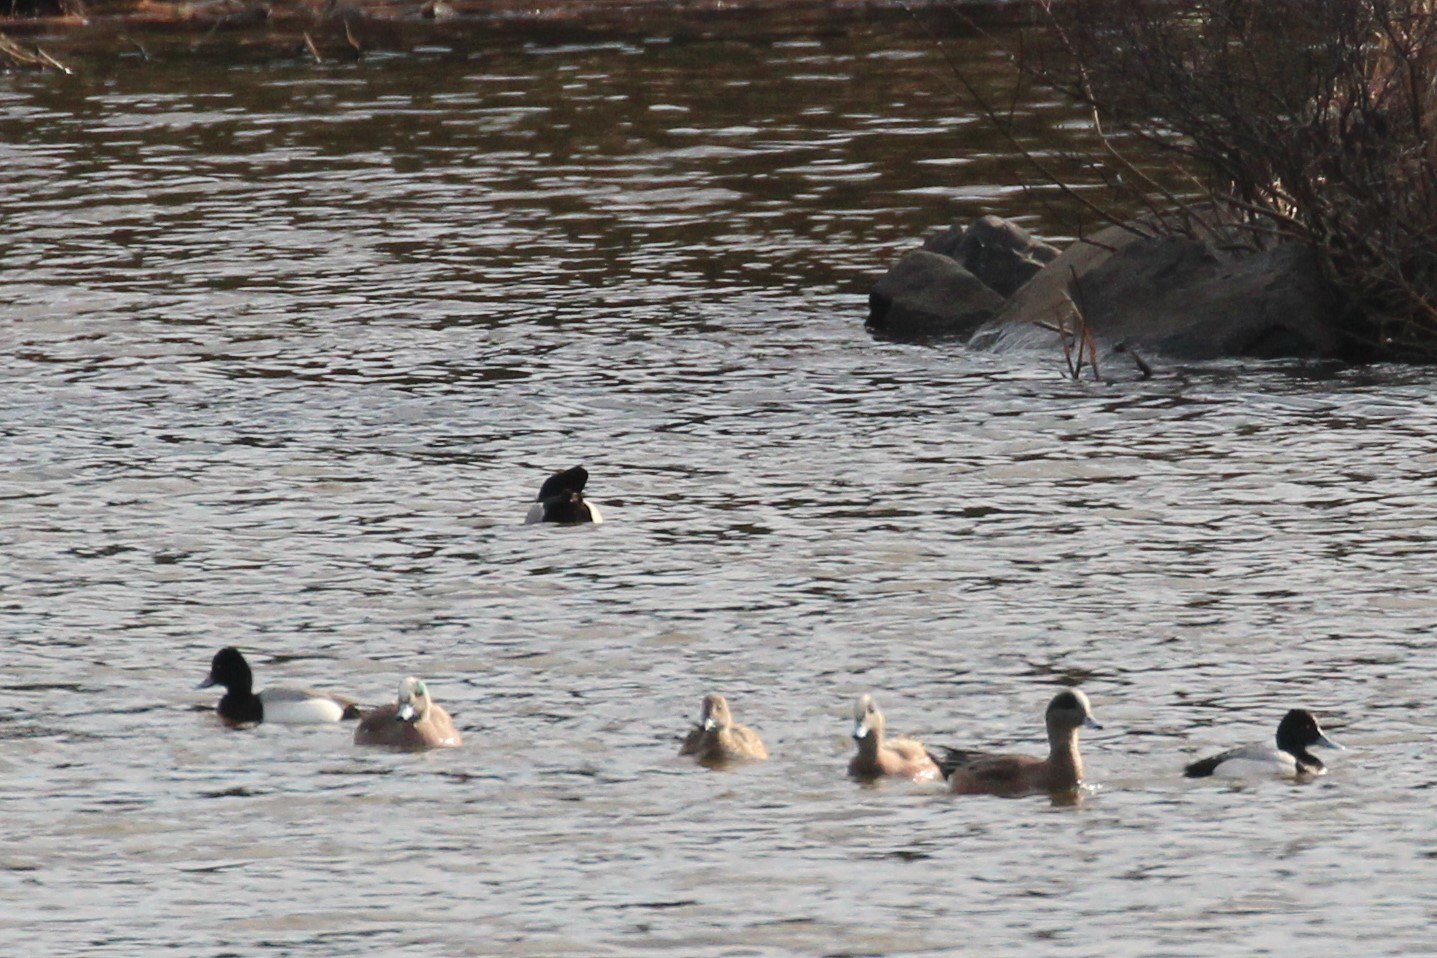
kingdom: Animalia
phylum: Chordata
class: Aves
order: Anseriformes
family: Anatidae
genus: Aythya
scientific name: Aythya affinis
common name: Lesser scaup
